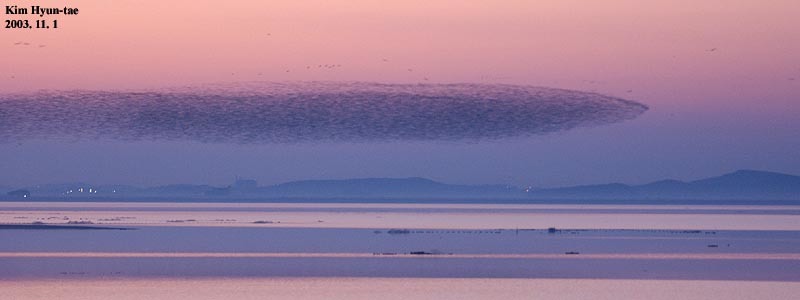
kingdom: Animalia
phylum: Chordata
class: Aves
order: Anseriformes
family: Anatidae
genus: Sibirionetta
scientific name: Sibirionetta formosa
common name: Baikal teal
